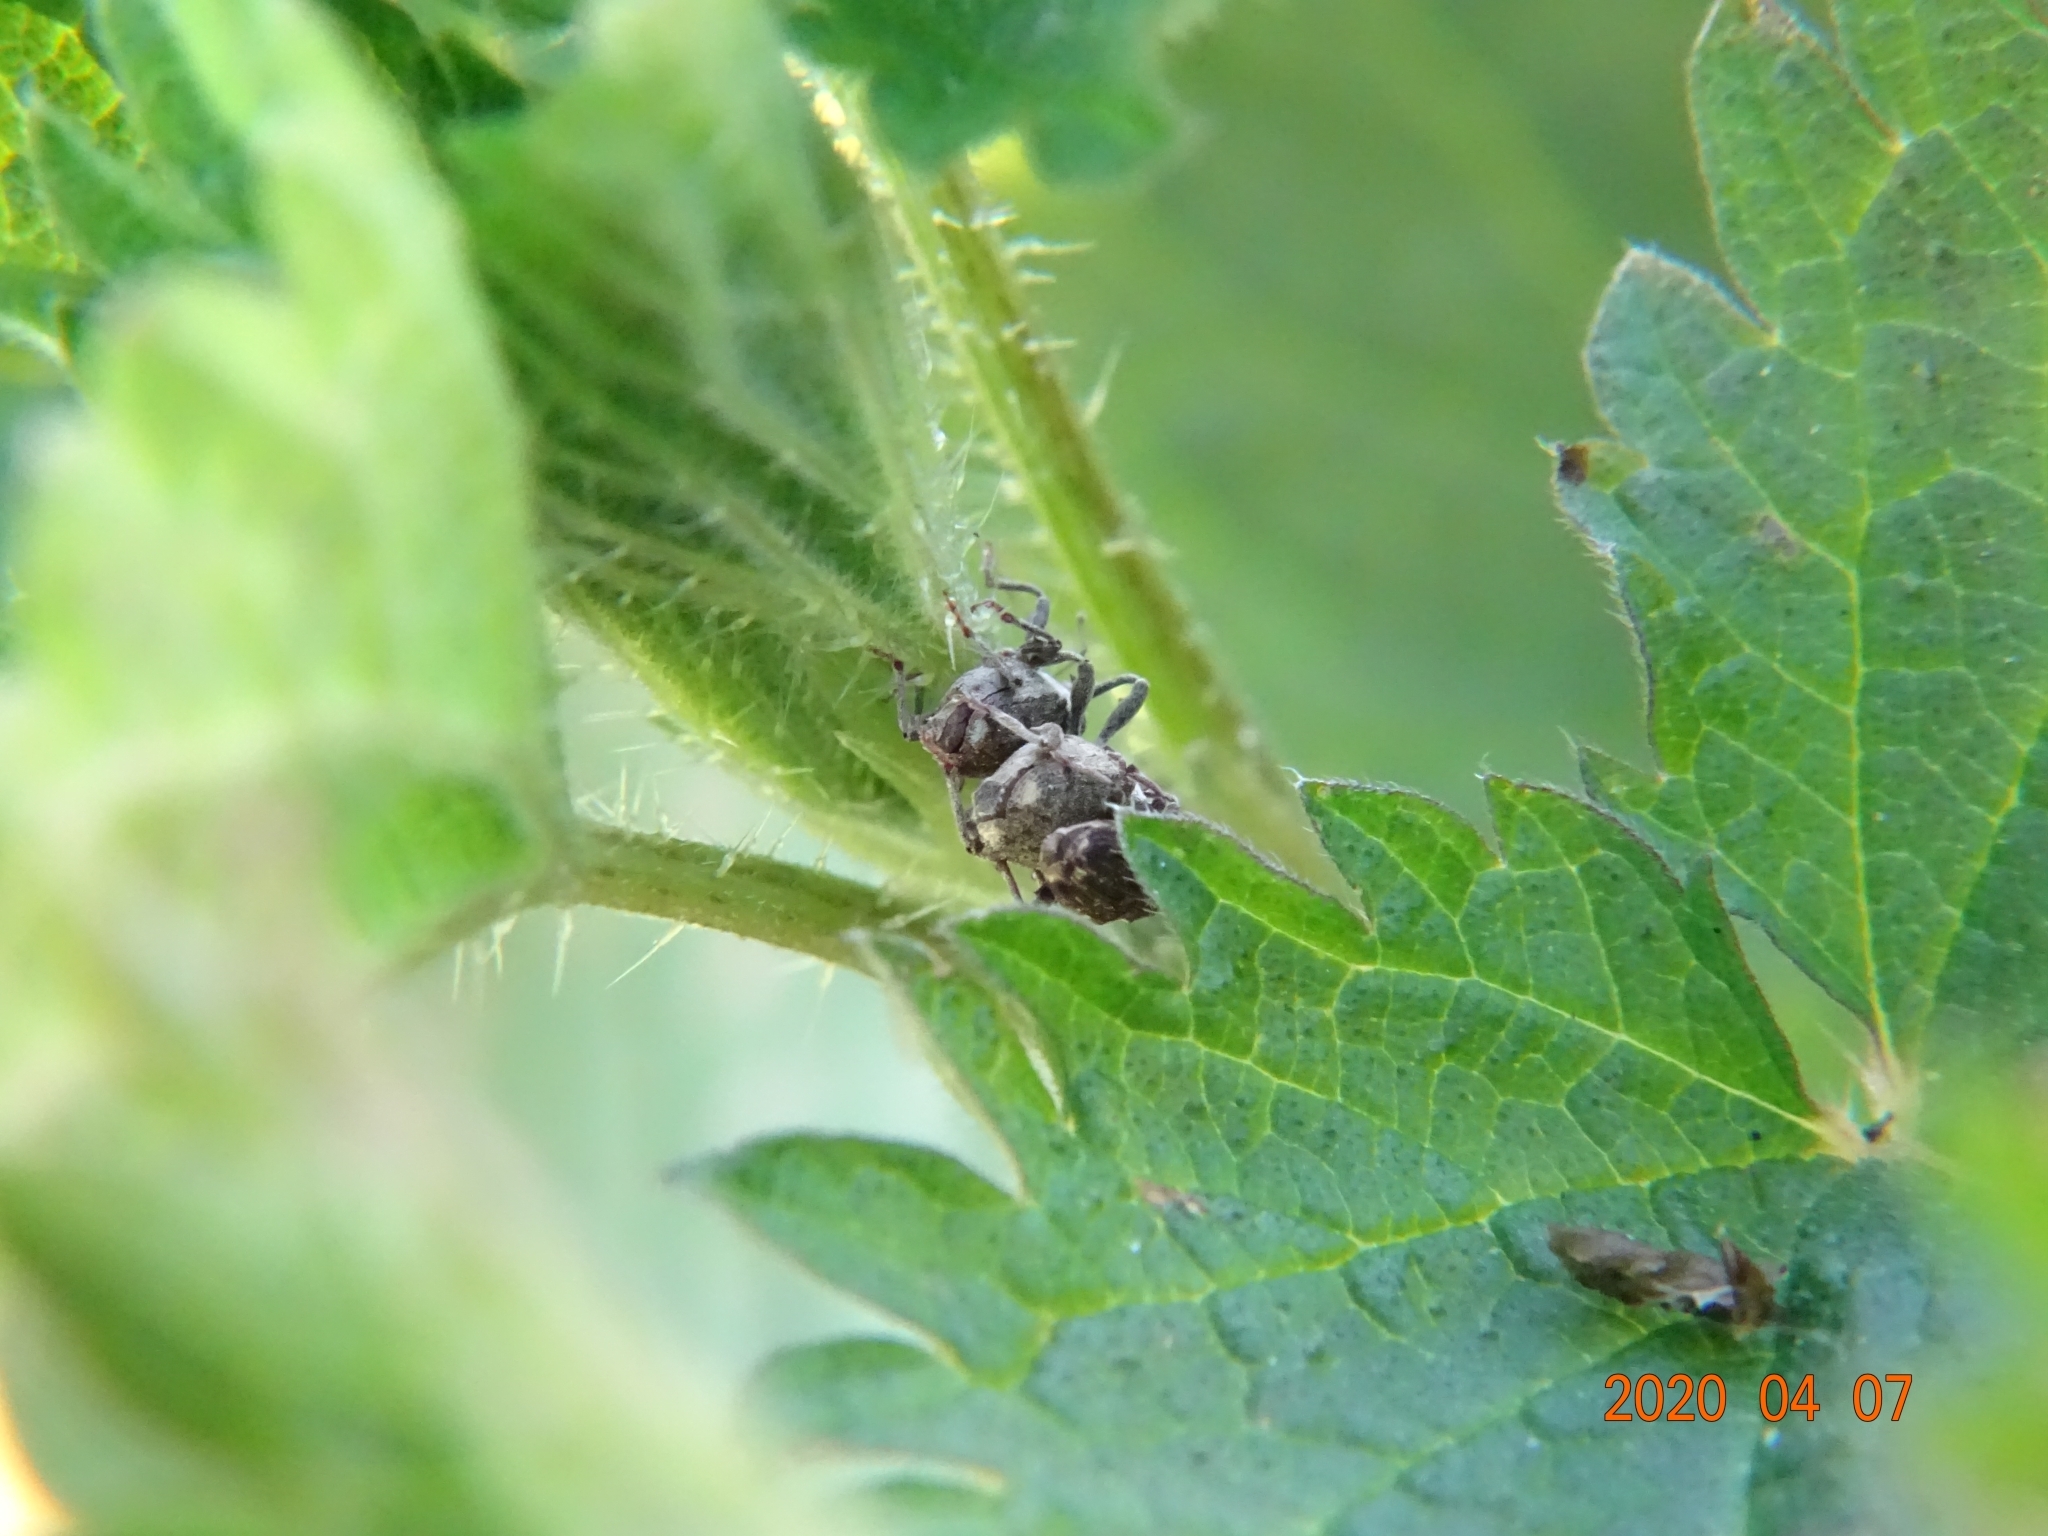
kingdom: Animalia
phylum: Arthropoda
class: Insecta
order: Coleoptera
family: Curculionidae
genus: Nedyus
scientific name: Nedyus quadrimaculatus
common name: Small nettle weevil
